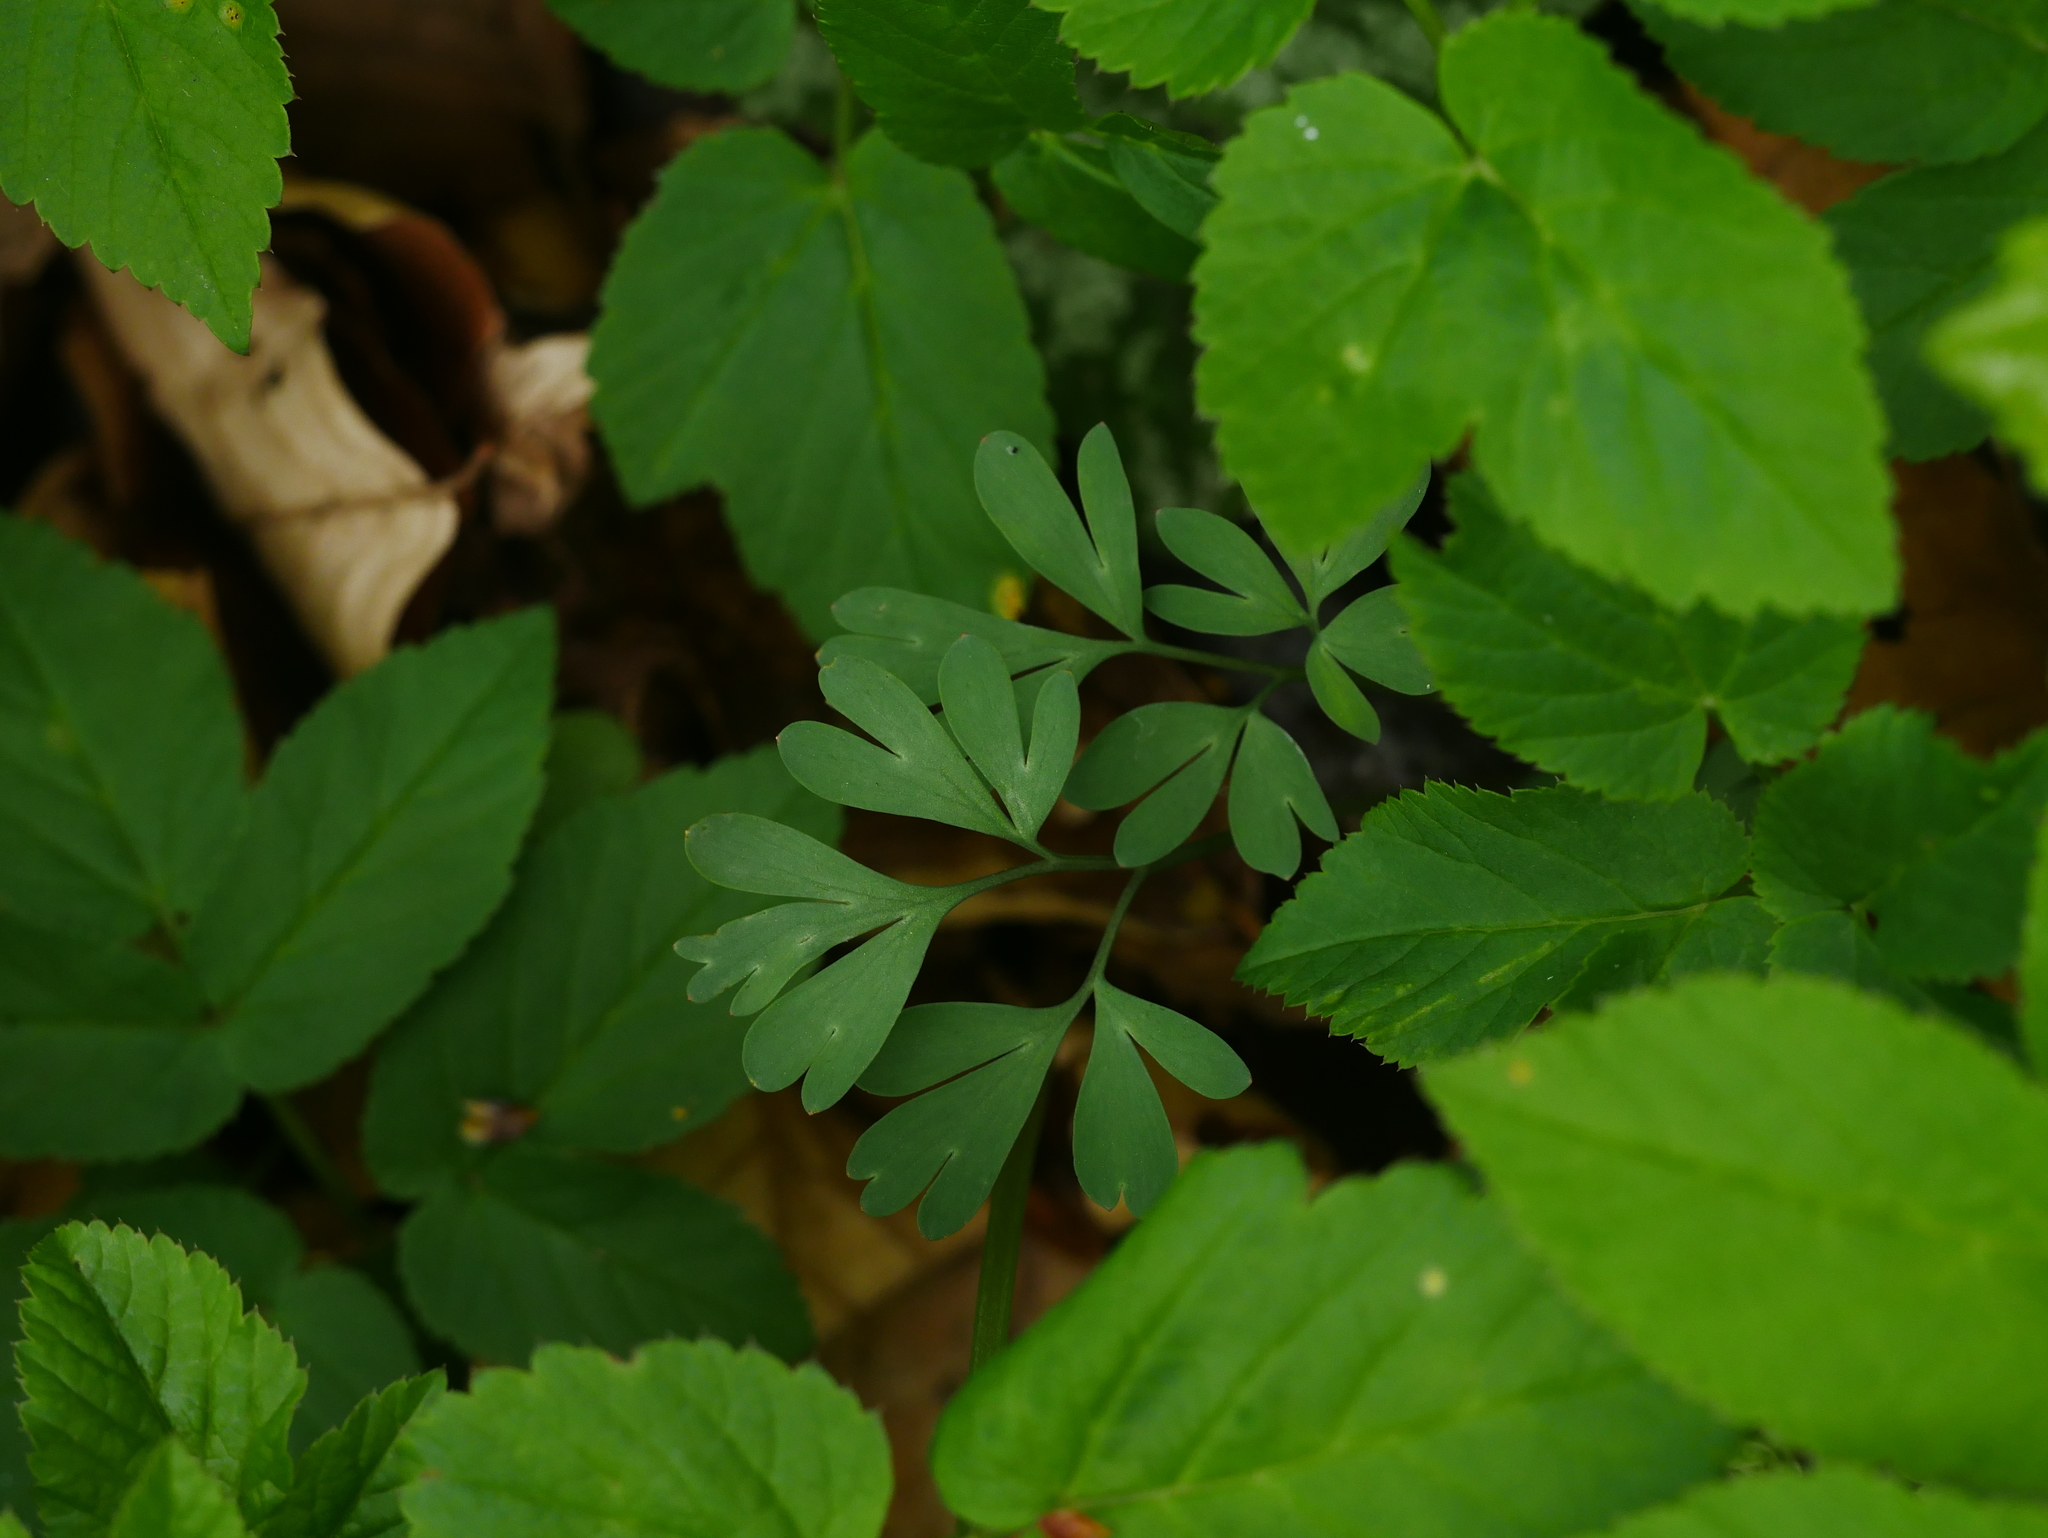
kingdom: Plantae
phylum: Tracheophyta
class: Magnoliopsida
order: Ranunculales
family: Papaveraceae
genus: Corydalis
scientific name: Corydalis solida
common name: Bird-in-a-bush
